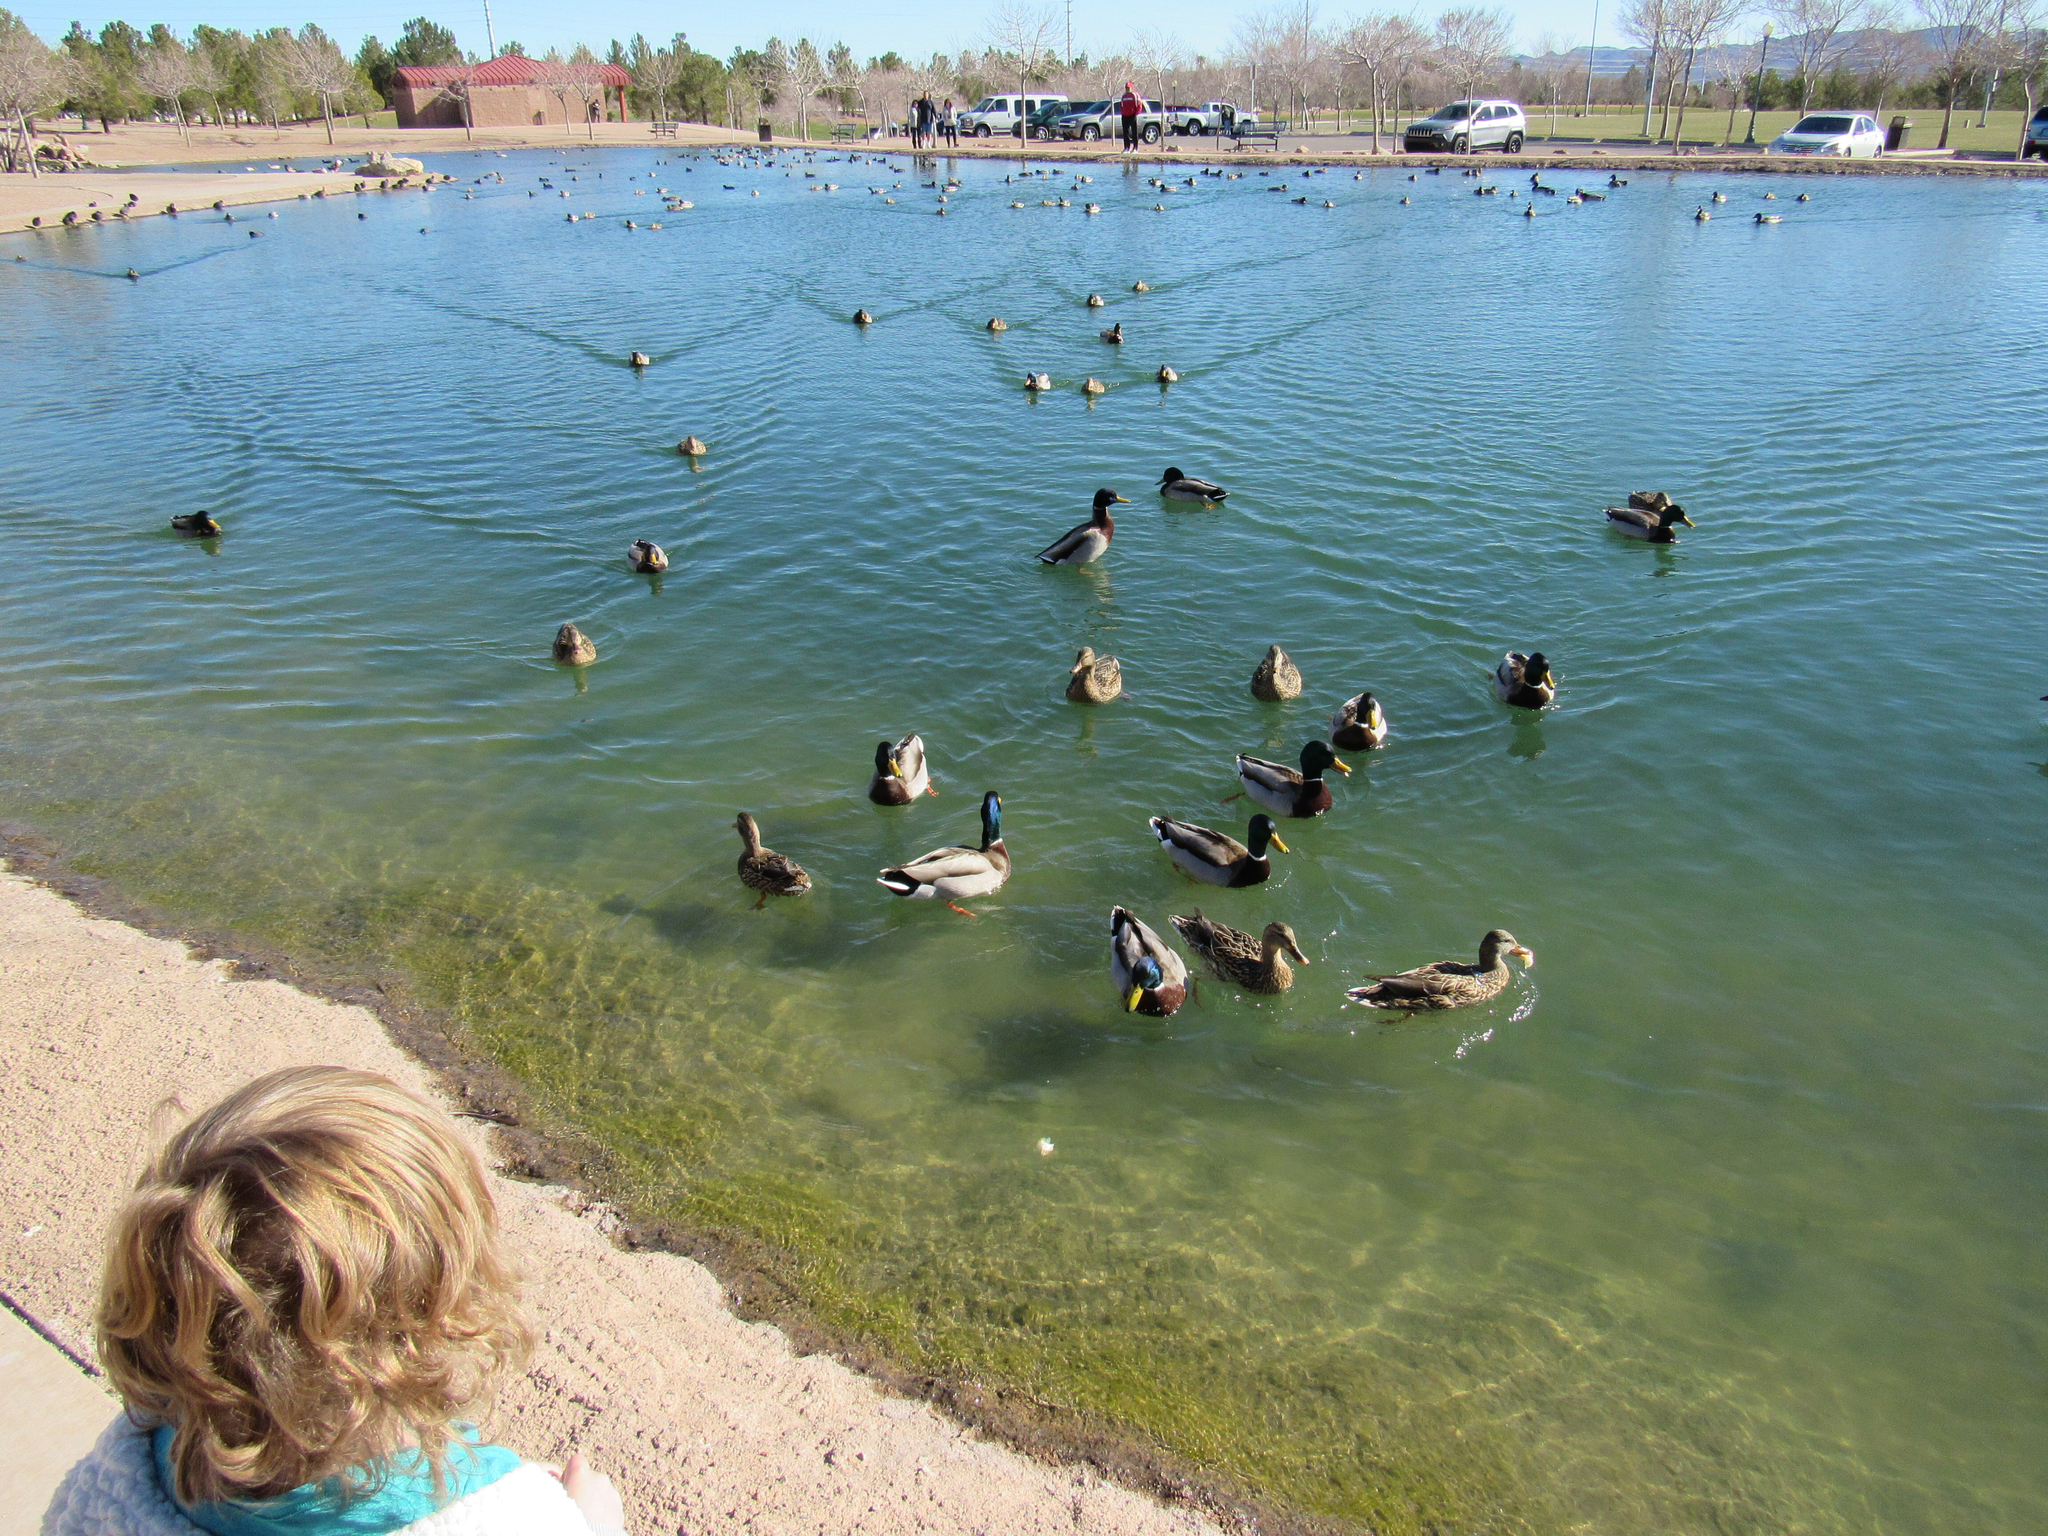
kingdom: Animalia
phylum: Chordata
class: Aves
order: Anseriformes
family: Anatidae
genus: Anas
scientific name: Anas platyrhynchos
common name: Mallard
